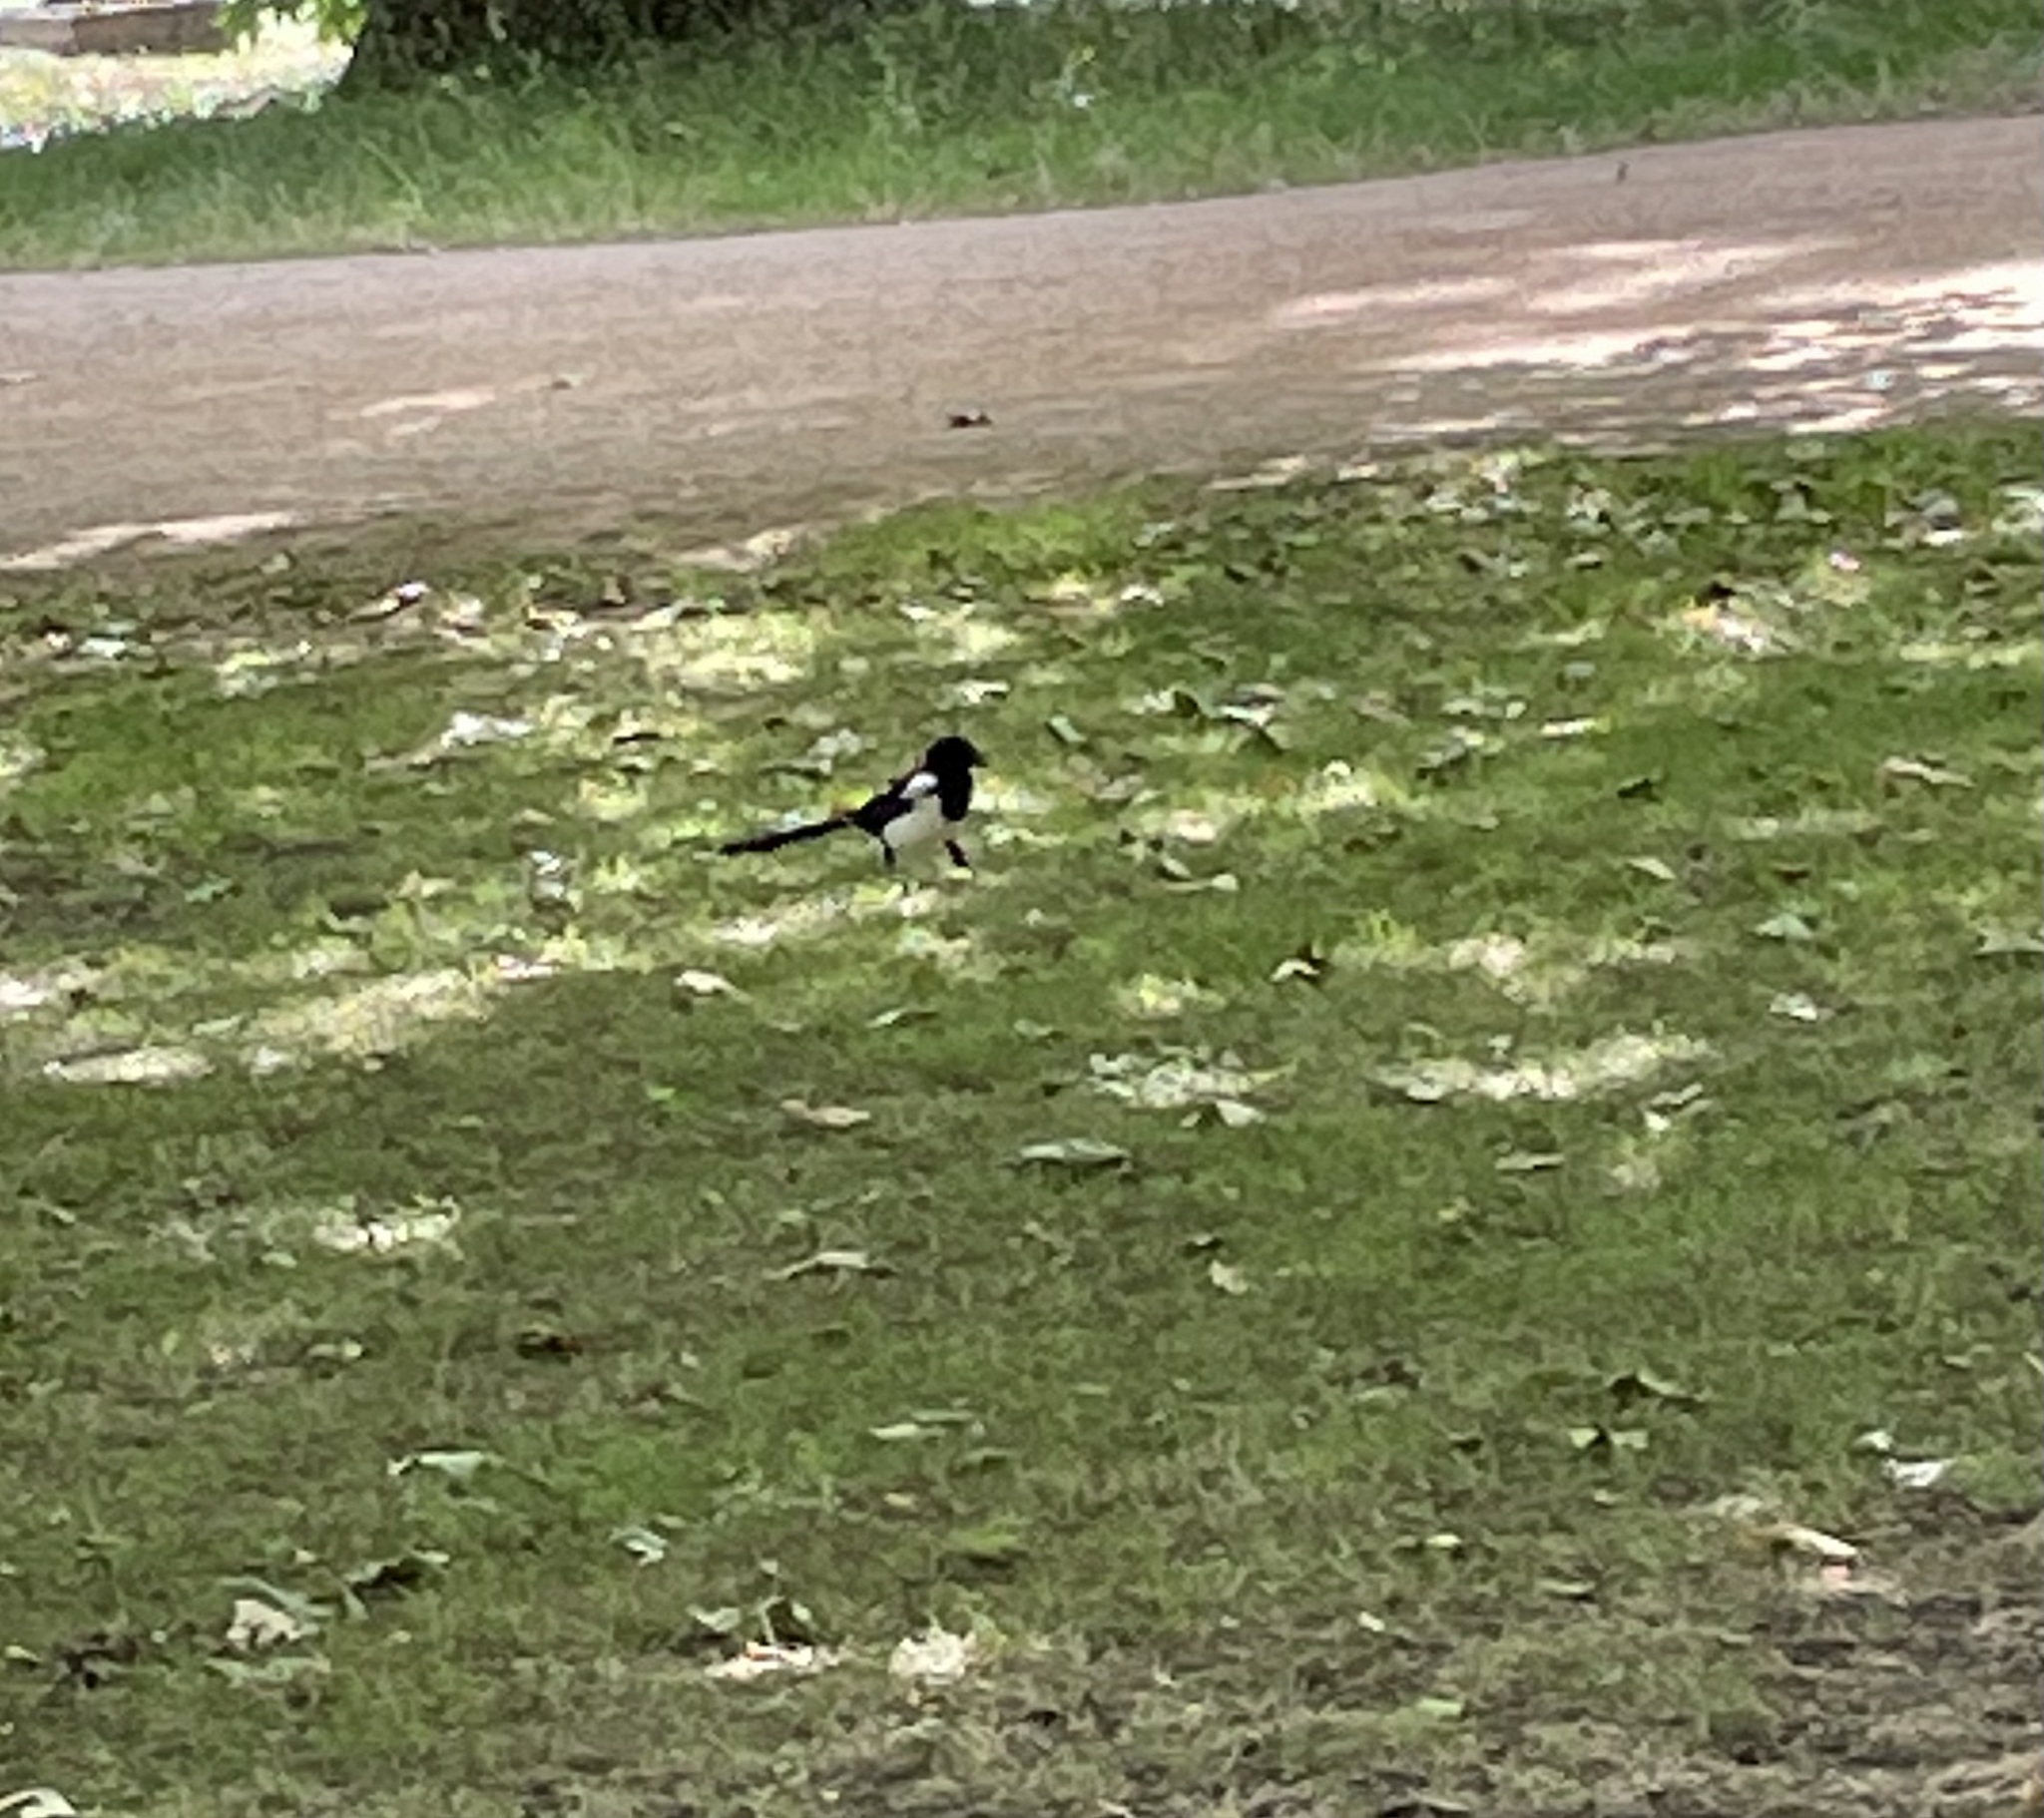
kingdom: Animalia
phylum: Chordata
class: Aves
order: Passeriformes
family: Corvidae
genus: Pica
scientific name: Pica pica
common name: Eurasian magpie
